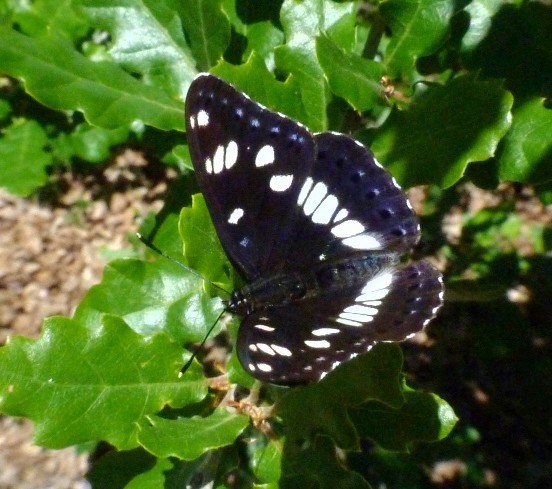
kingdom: Animalia
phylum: Arthropoda
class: Insecta
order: Lepidoptera
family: Nymphalidae
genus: Limenitis
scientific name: Limenitis reducta
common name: Southern white admiral
